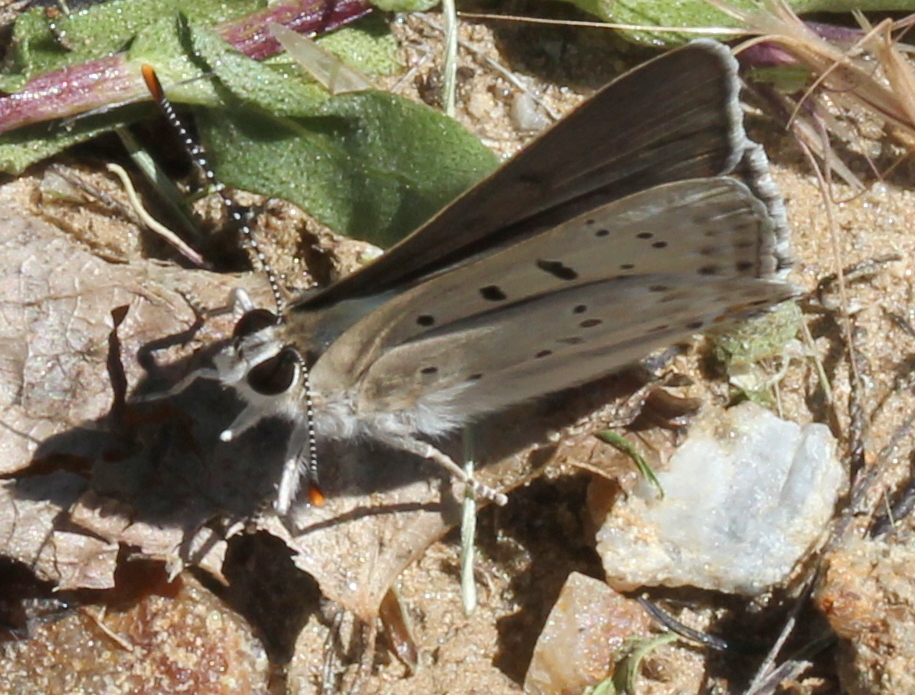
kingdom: Animalia
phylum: Arthropoda
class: Insecta
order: Lepidoptera
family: Lycaenidae
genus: Tharsalea
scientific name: Tharsalea xanthoides
